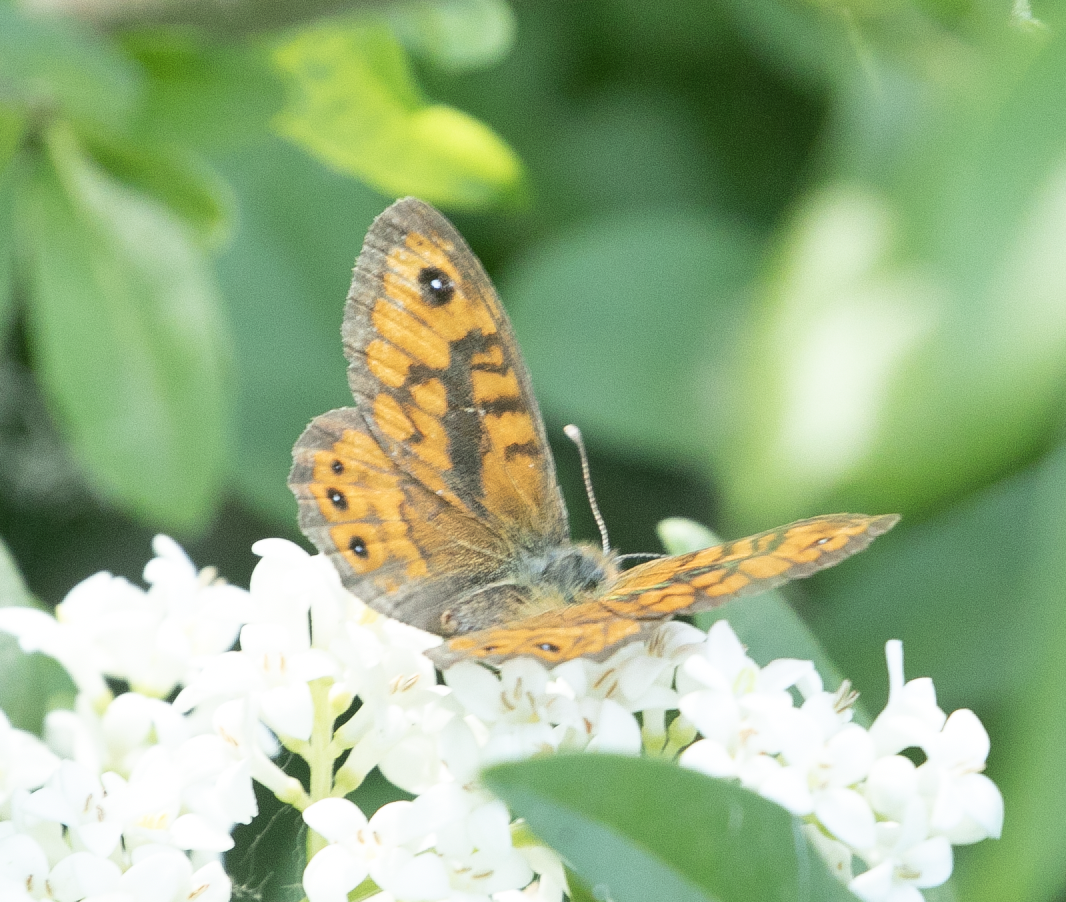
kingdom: Animalia
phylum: Arthropoda
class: Insecta
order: Lepidoptera
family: Nymphalidae
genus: Pararge
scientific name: Pararge Lasiommata megera
